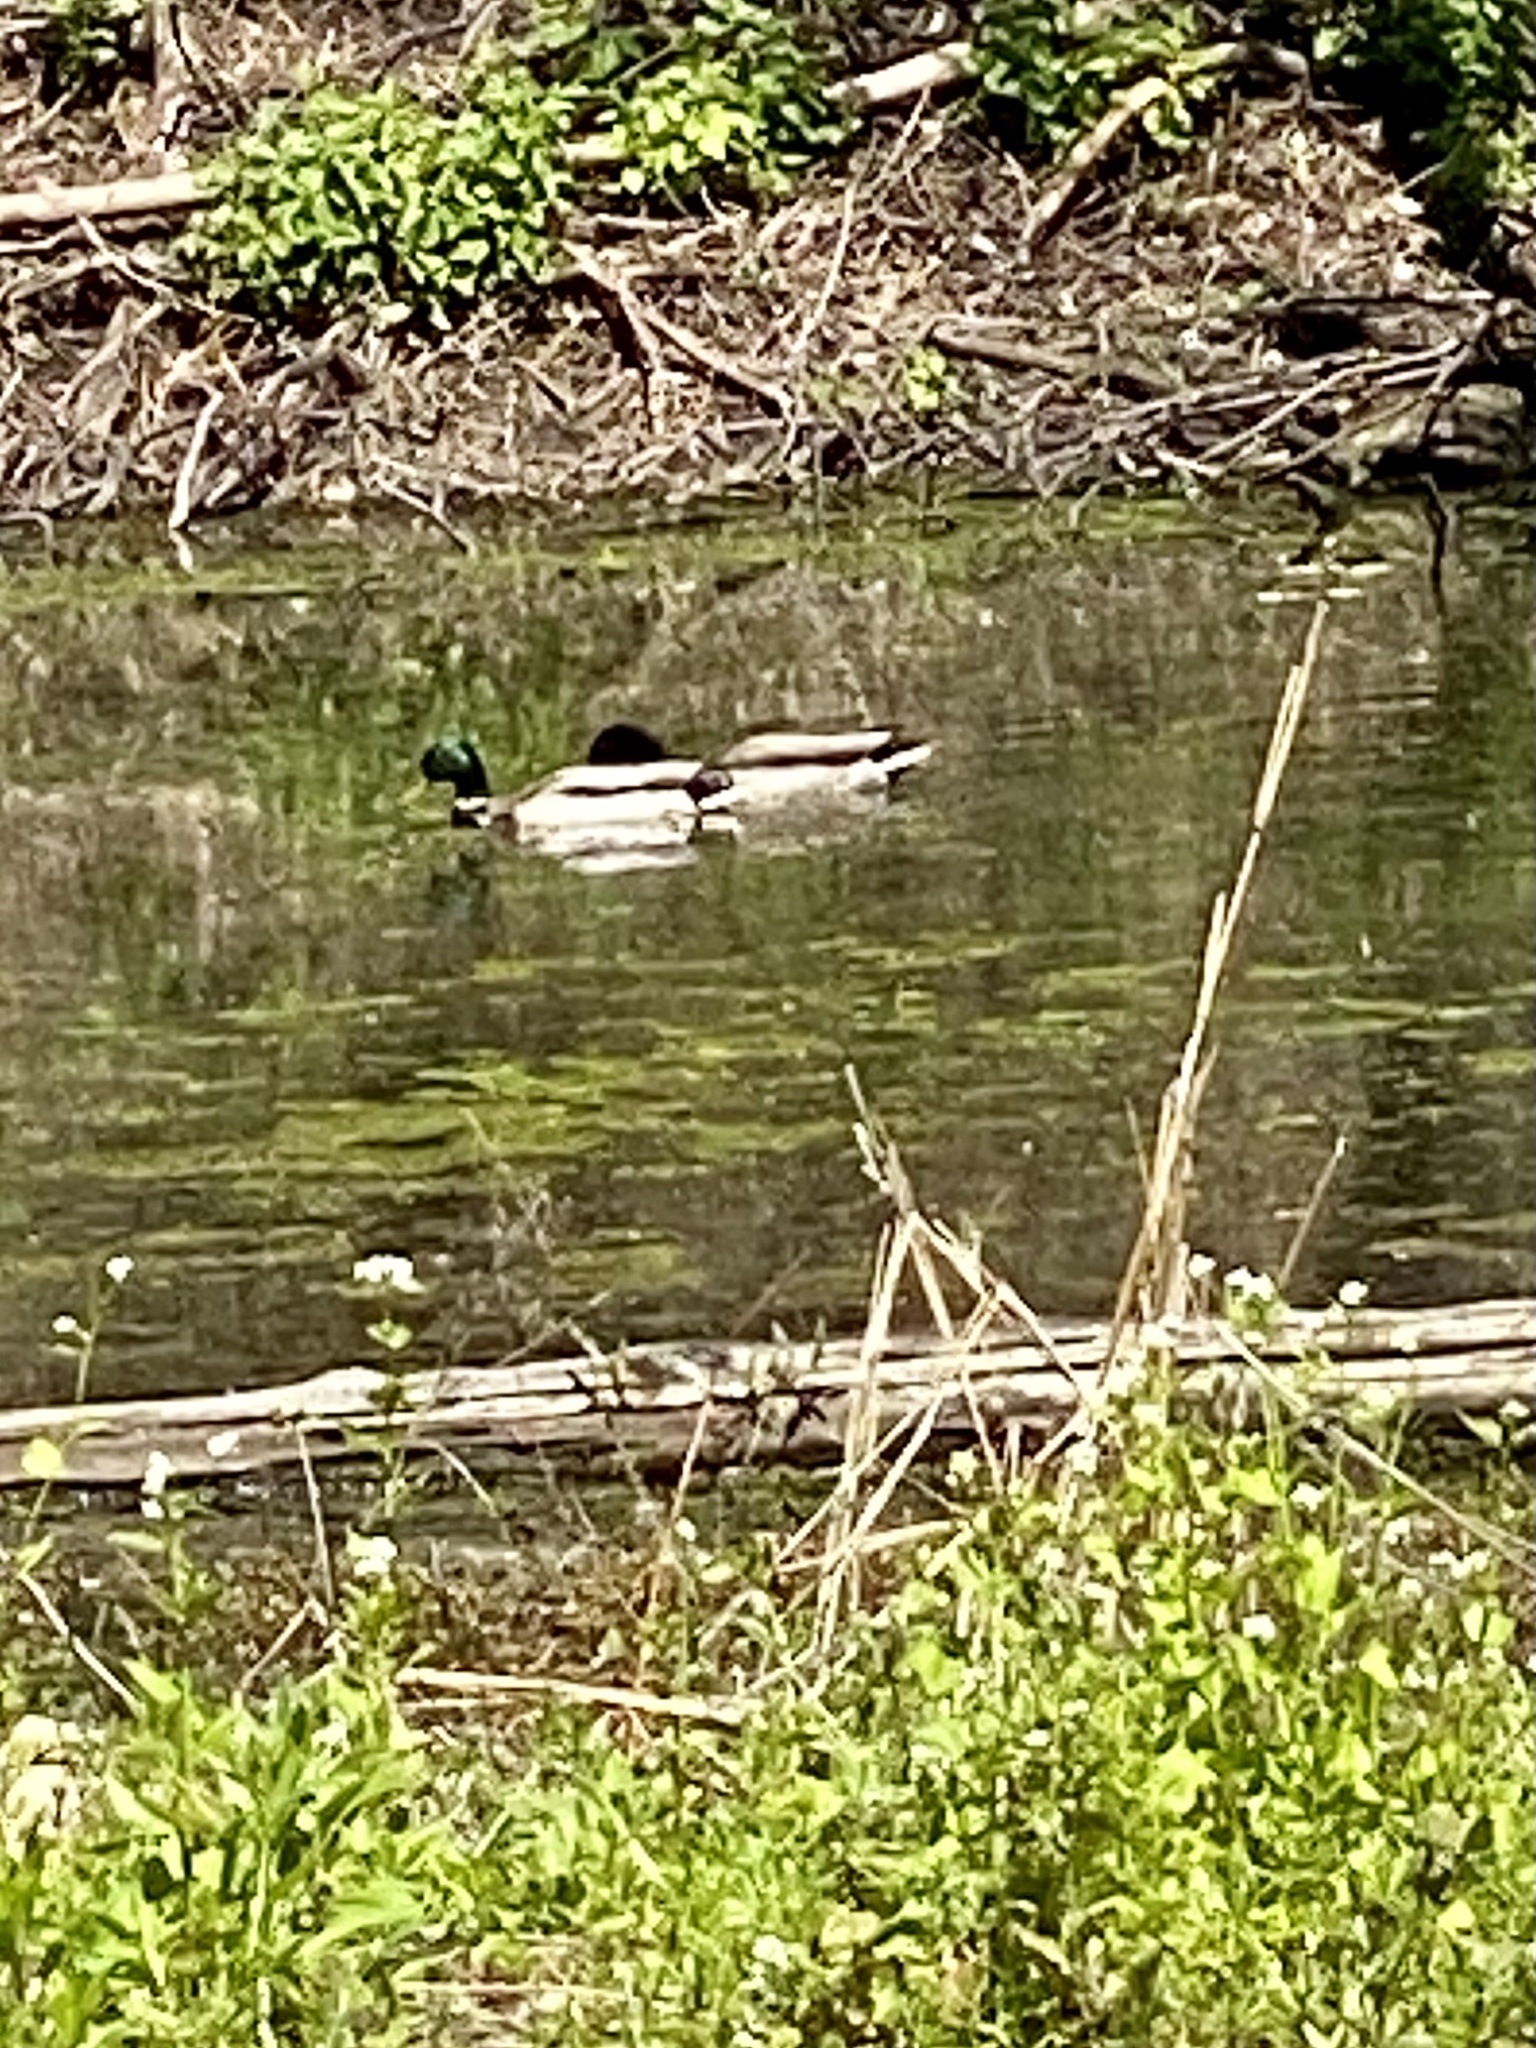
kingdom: Animalia
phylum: Chordata
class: Aves
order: Anseriformes
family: Anatidae
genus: Anas
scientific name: Anas platyrhynchos
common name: Mallard
